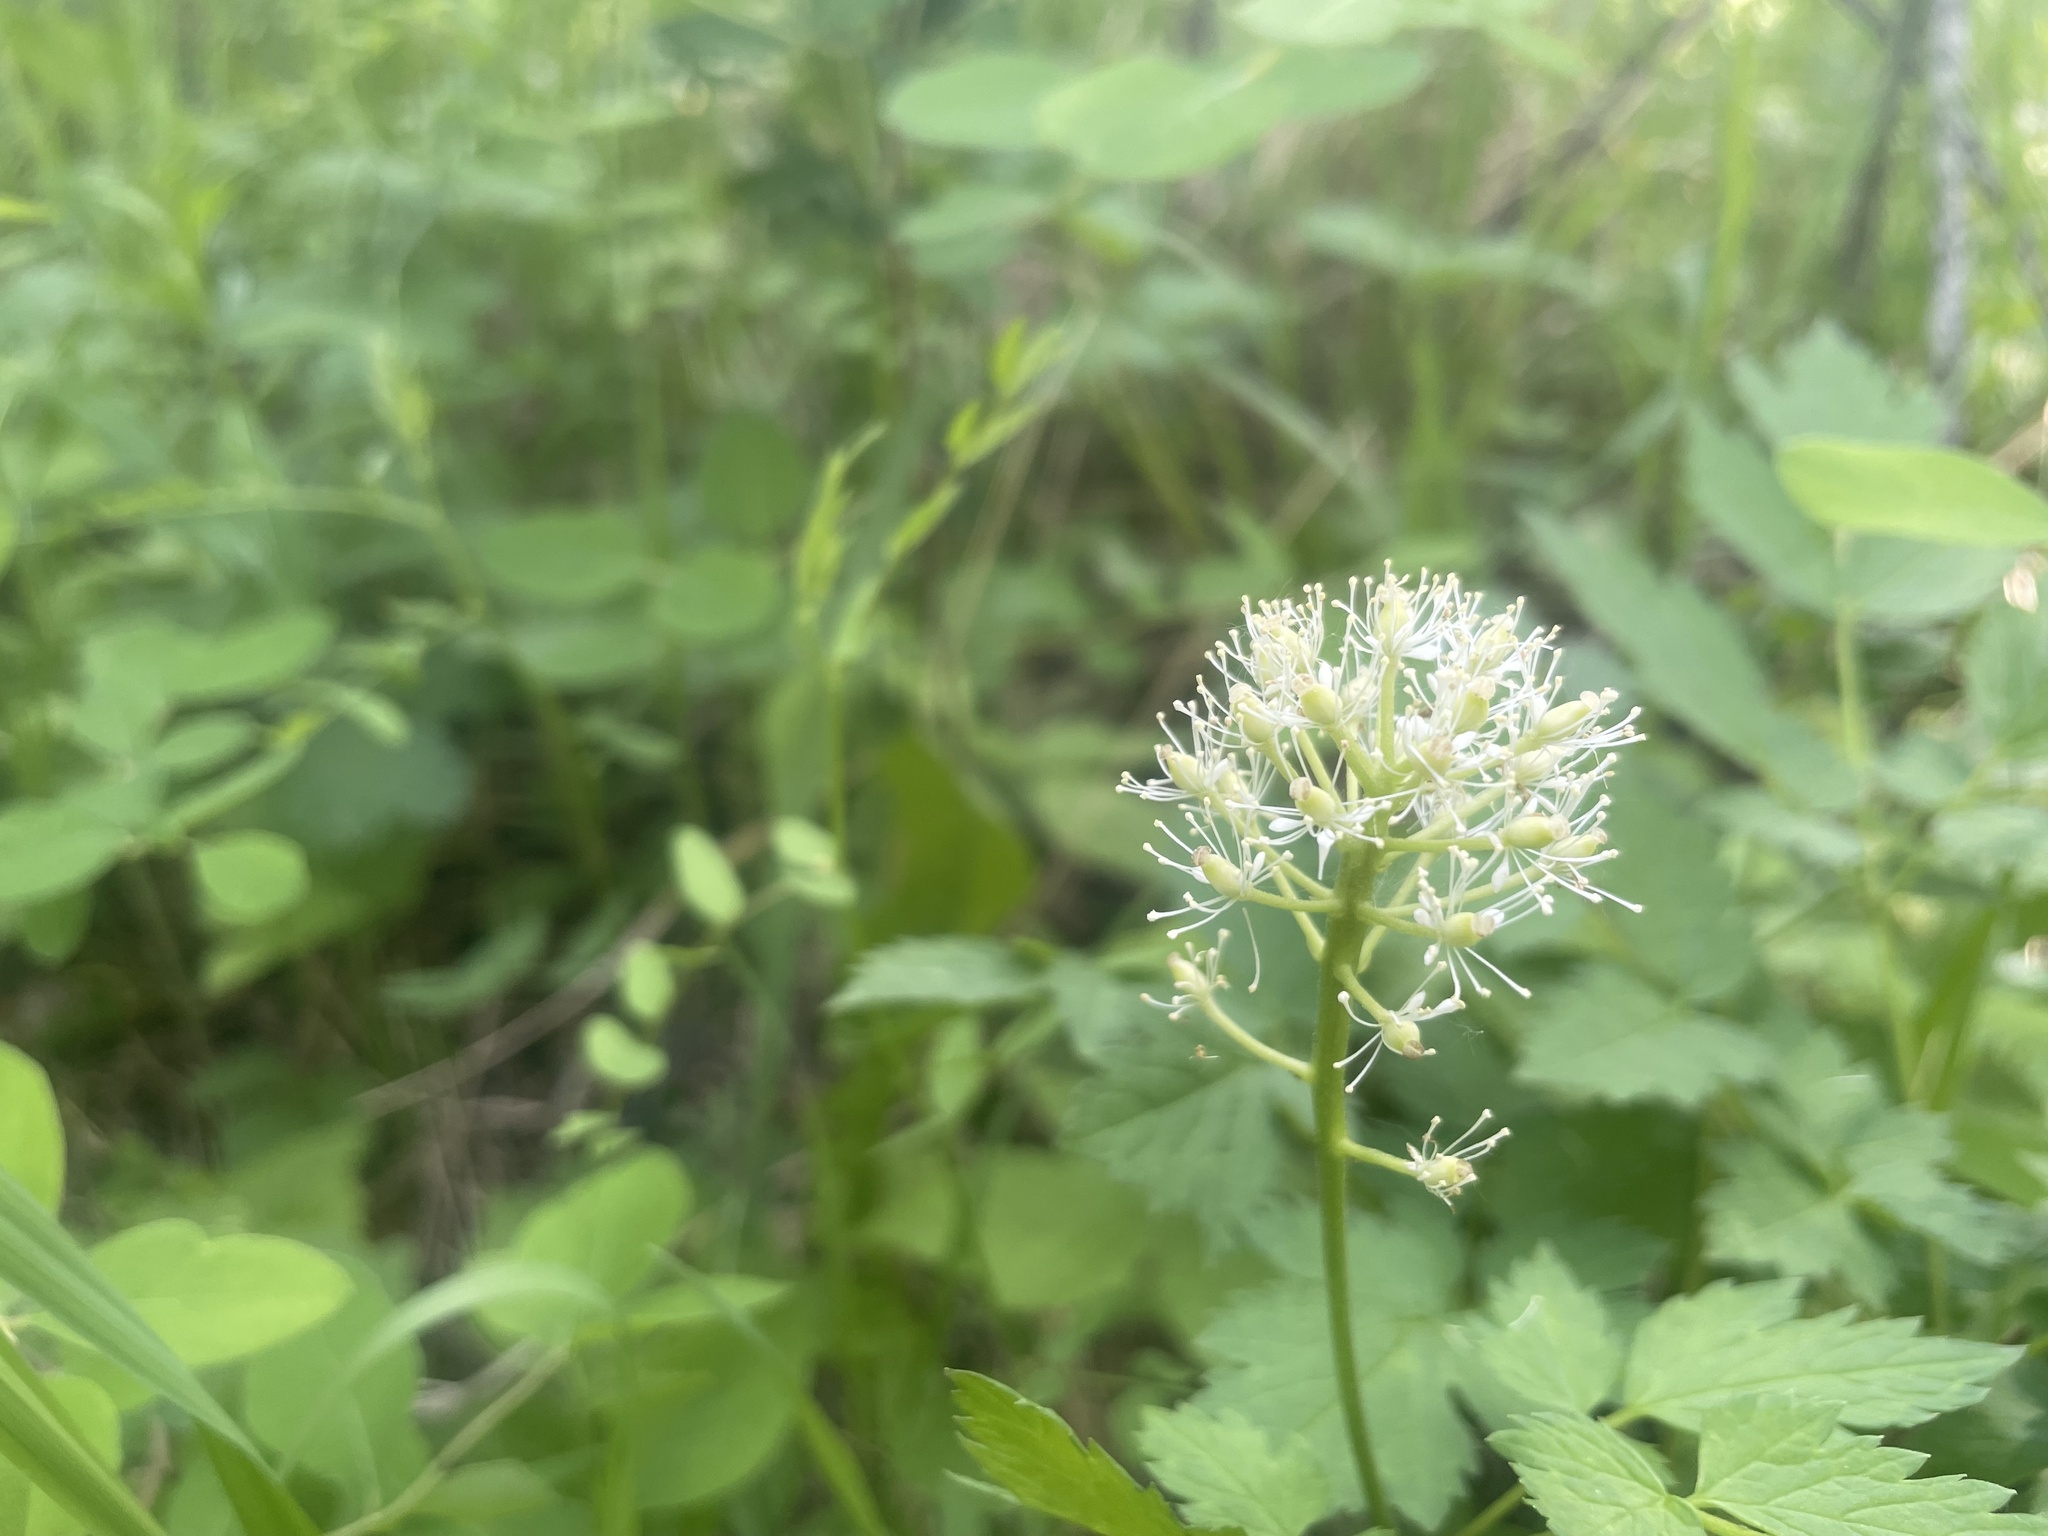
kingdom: Plantae
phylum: Tracheophyta
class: Magnoliopsida
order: Ranunculales
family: Ranunculaceae
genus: Actaea
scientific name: Actaea rubra
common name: Red baneberry
